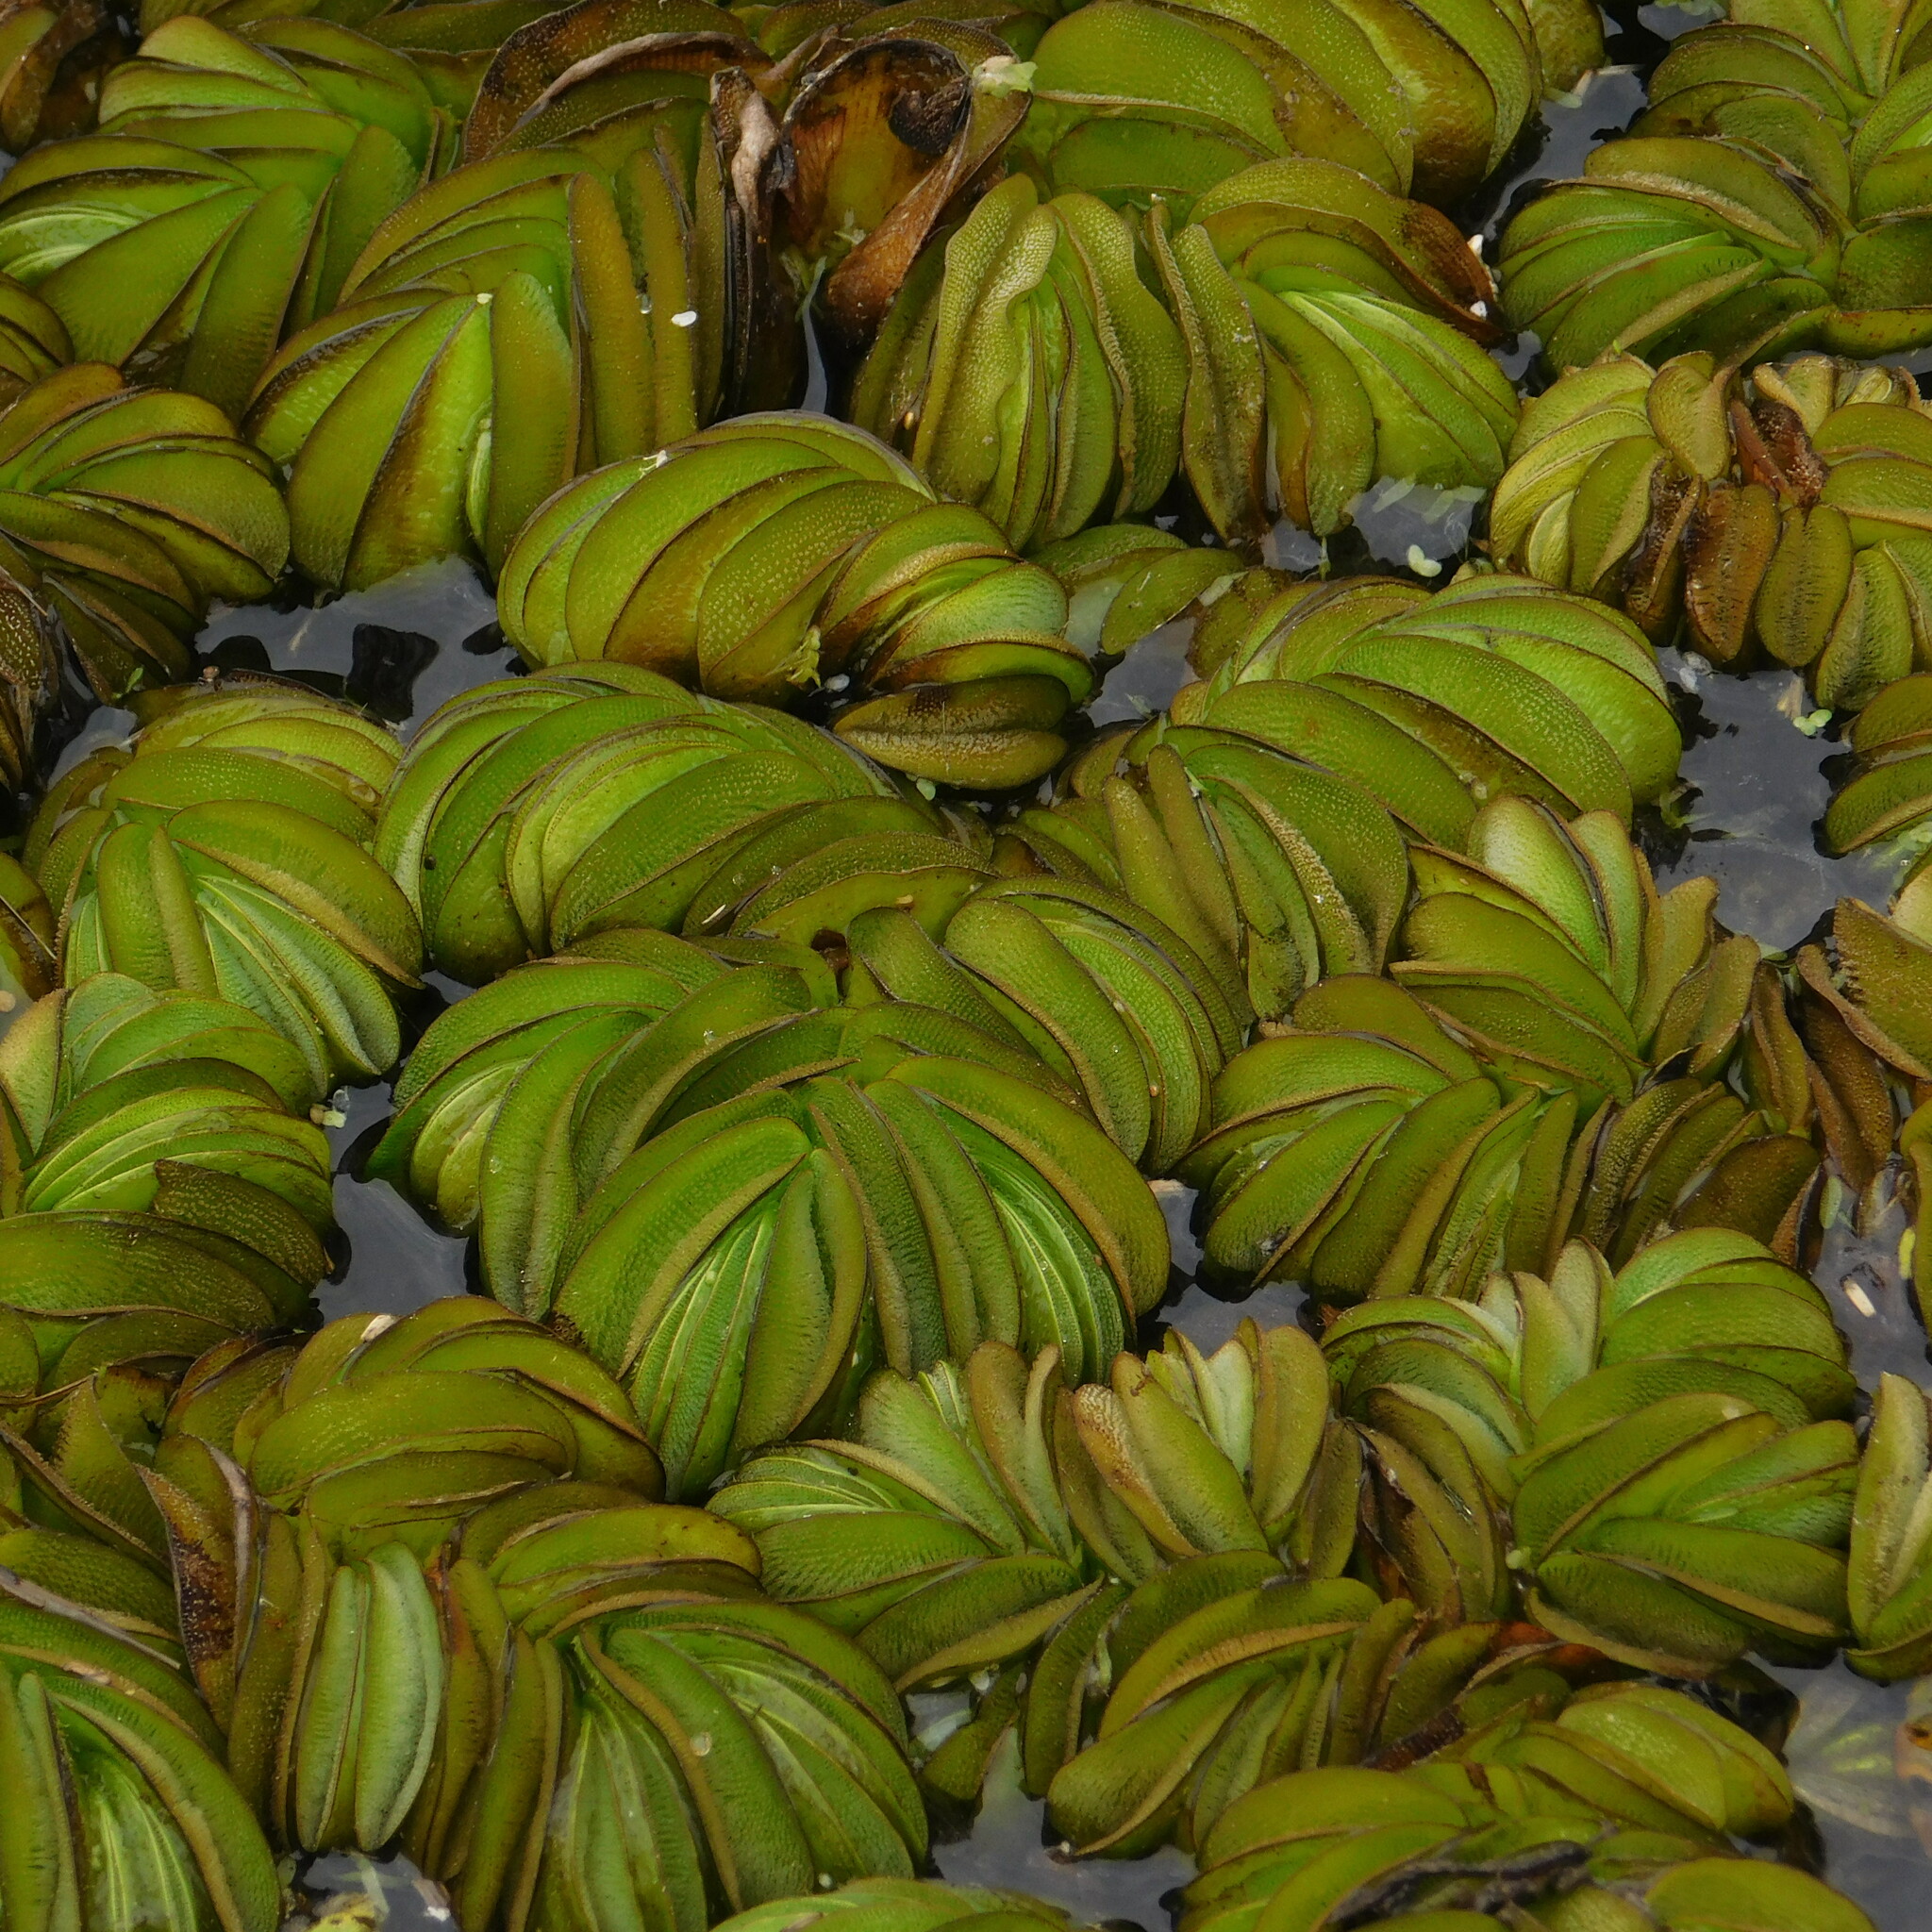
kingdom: Plantae
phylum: Tracheophyta
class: Polypodiopsida
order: Salviniales
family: Salviniaceae
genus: Salvinia
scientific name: Salvinia biloba
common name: Giant salvinia
